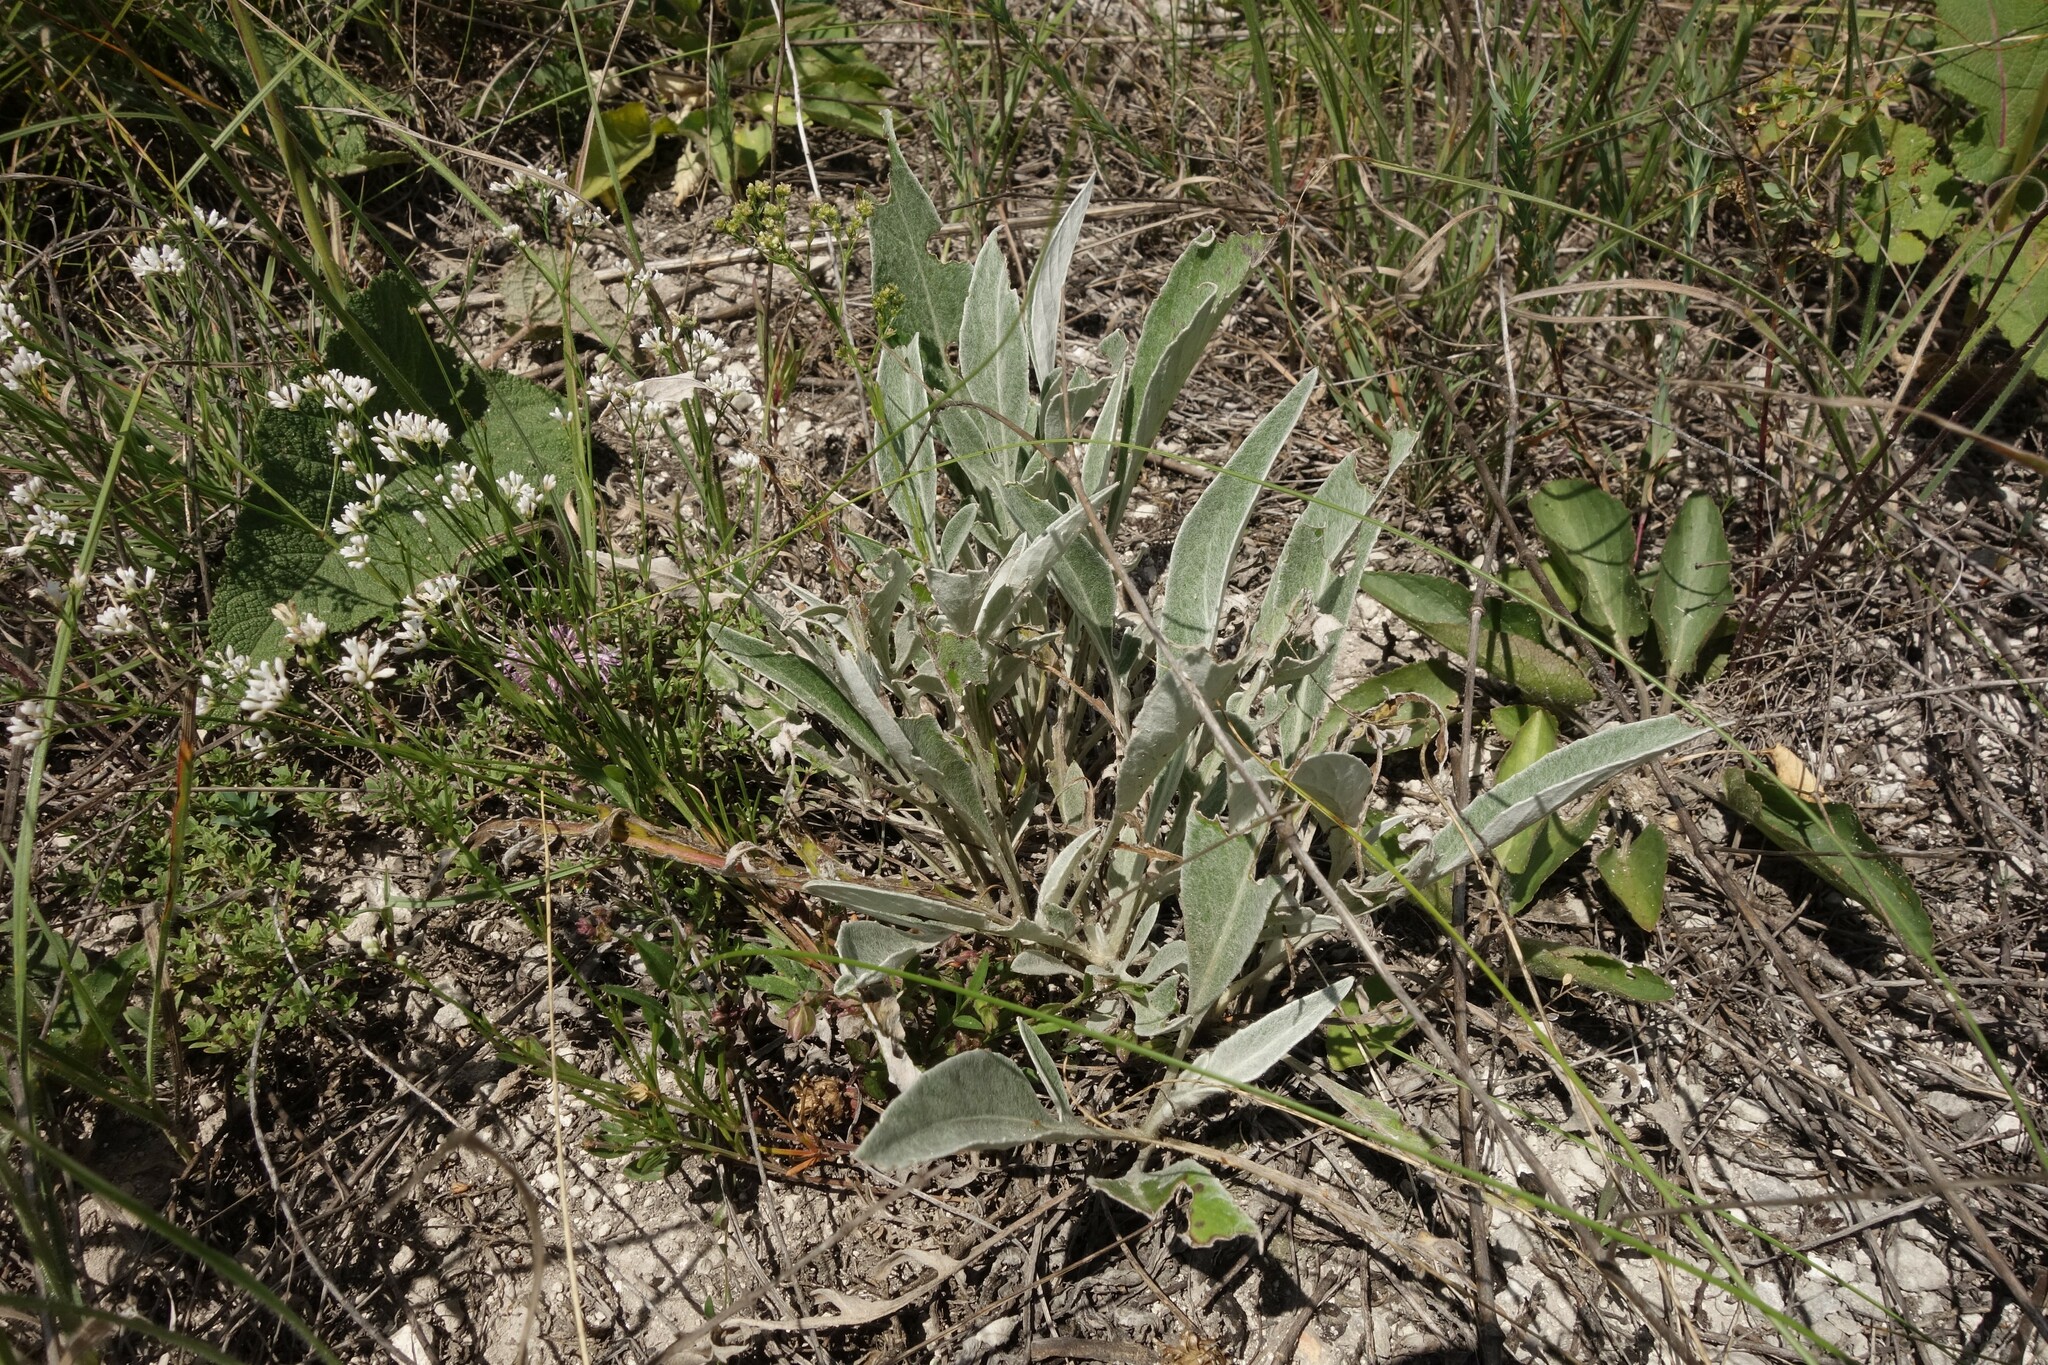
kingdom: Plantae
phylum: Tracheophyta
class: Magnoliopsida
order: Asterales
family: Asteraceae
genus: Psephellus
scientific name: Psephellus sumensis
